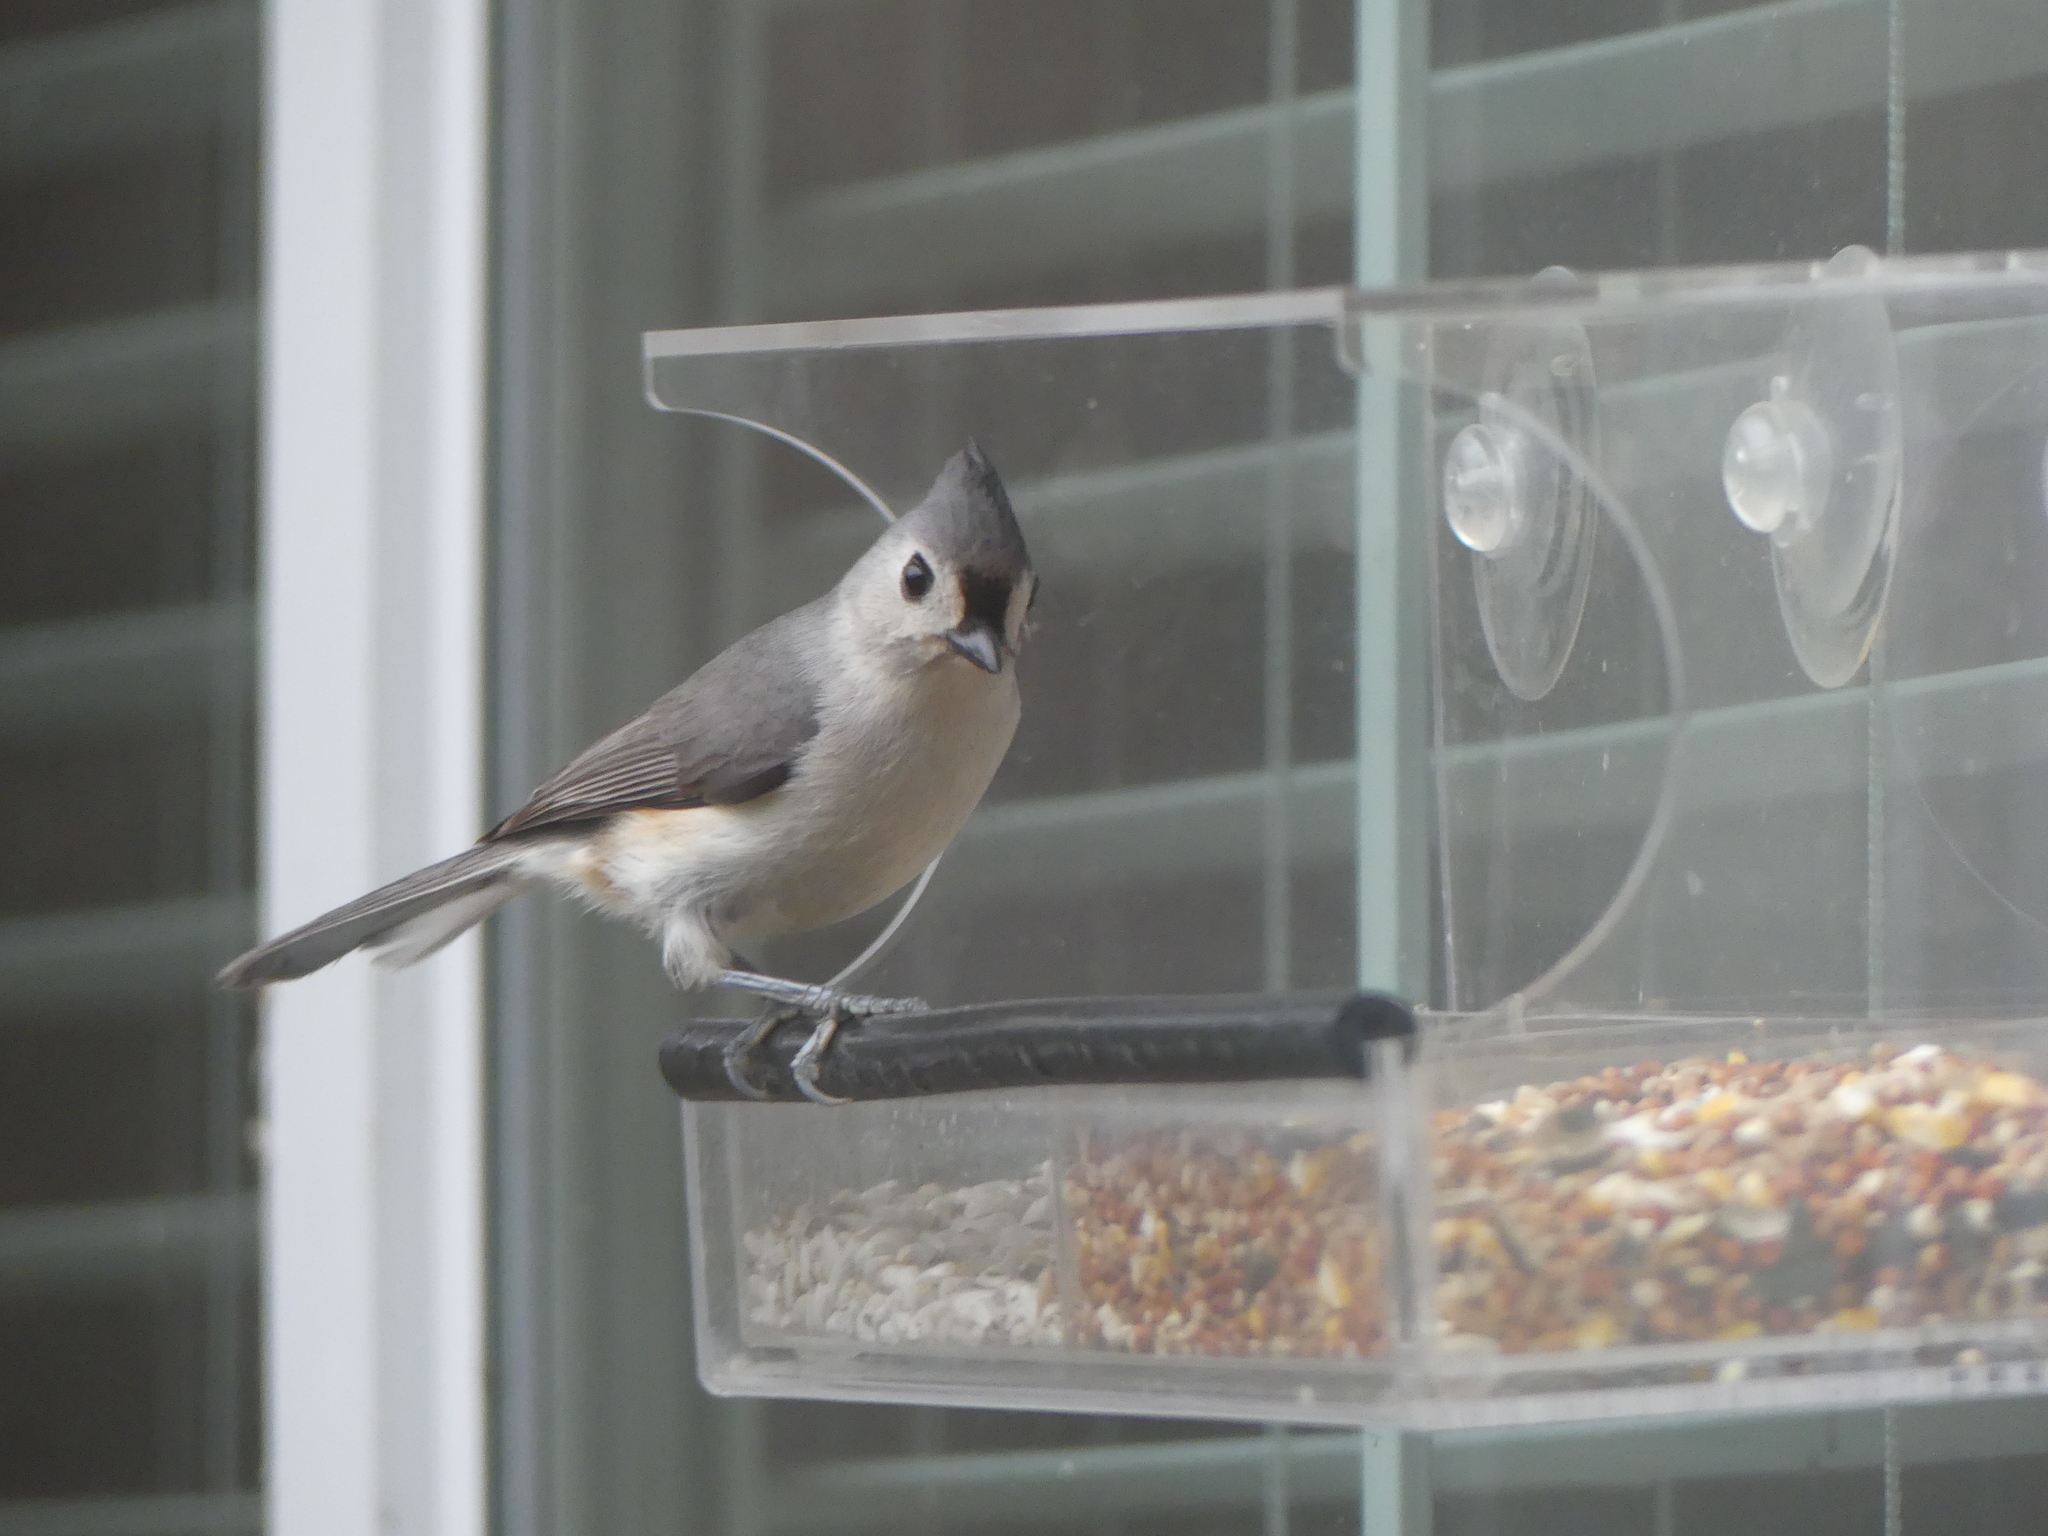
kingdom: Animalia
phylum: Chordata
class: Aves
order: Passeriformes
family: Paridae
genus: Baeolophus
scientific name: Baeolophus bicolor
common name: Tufted titmouse
